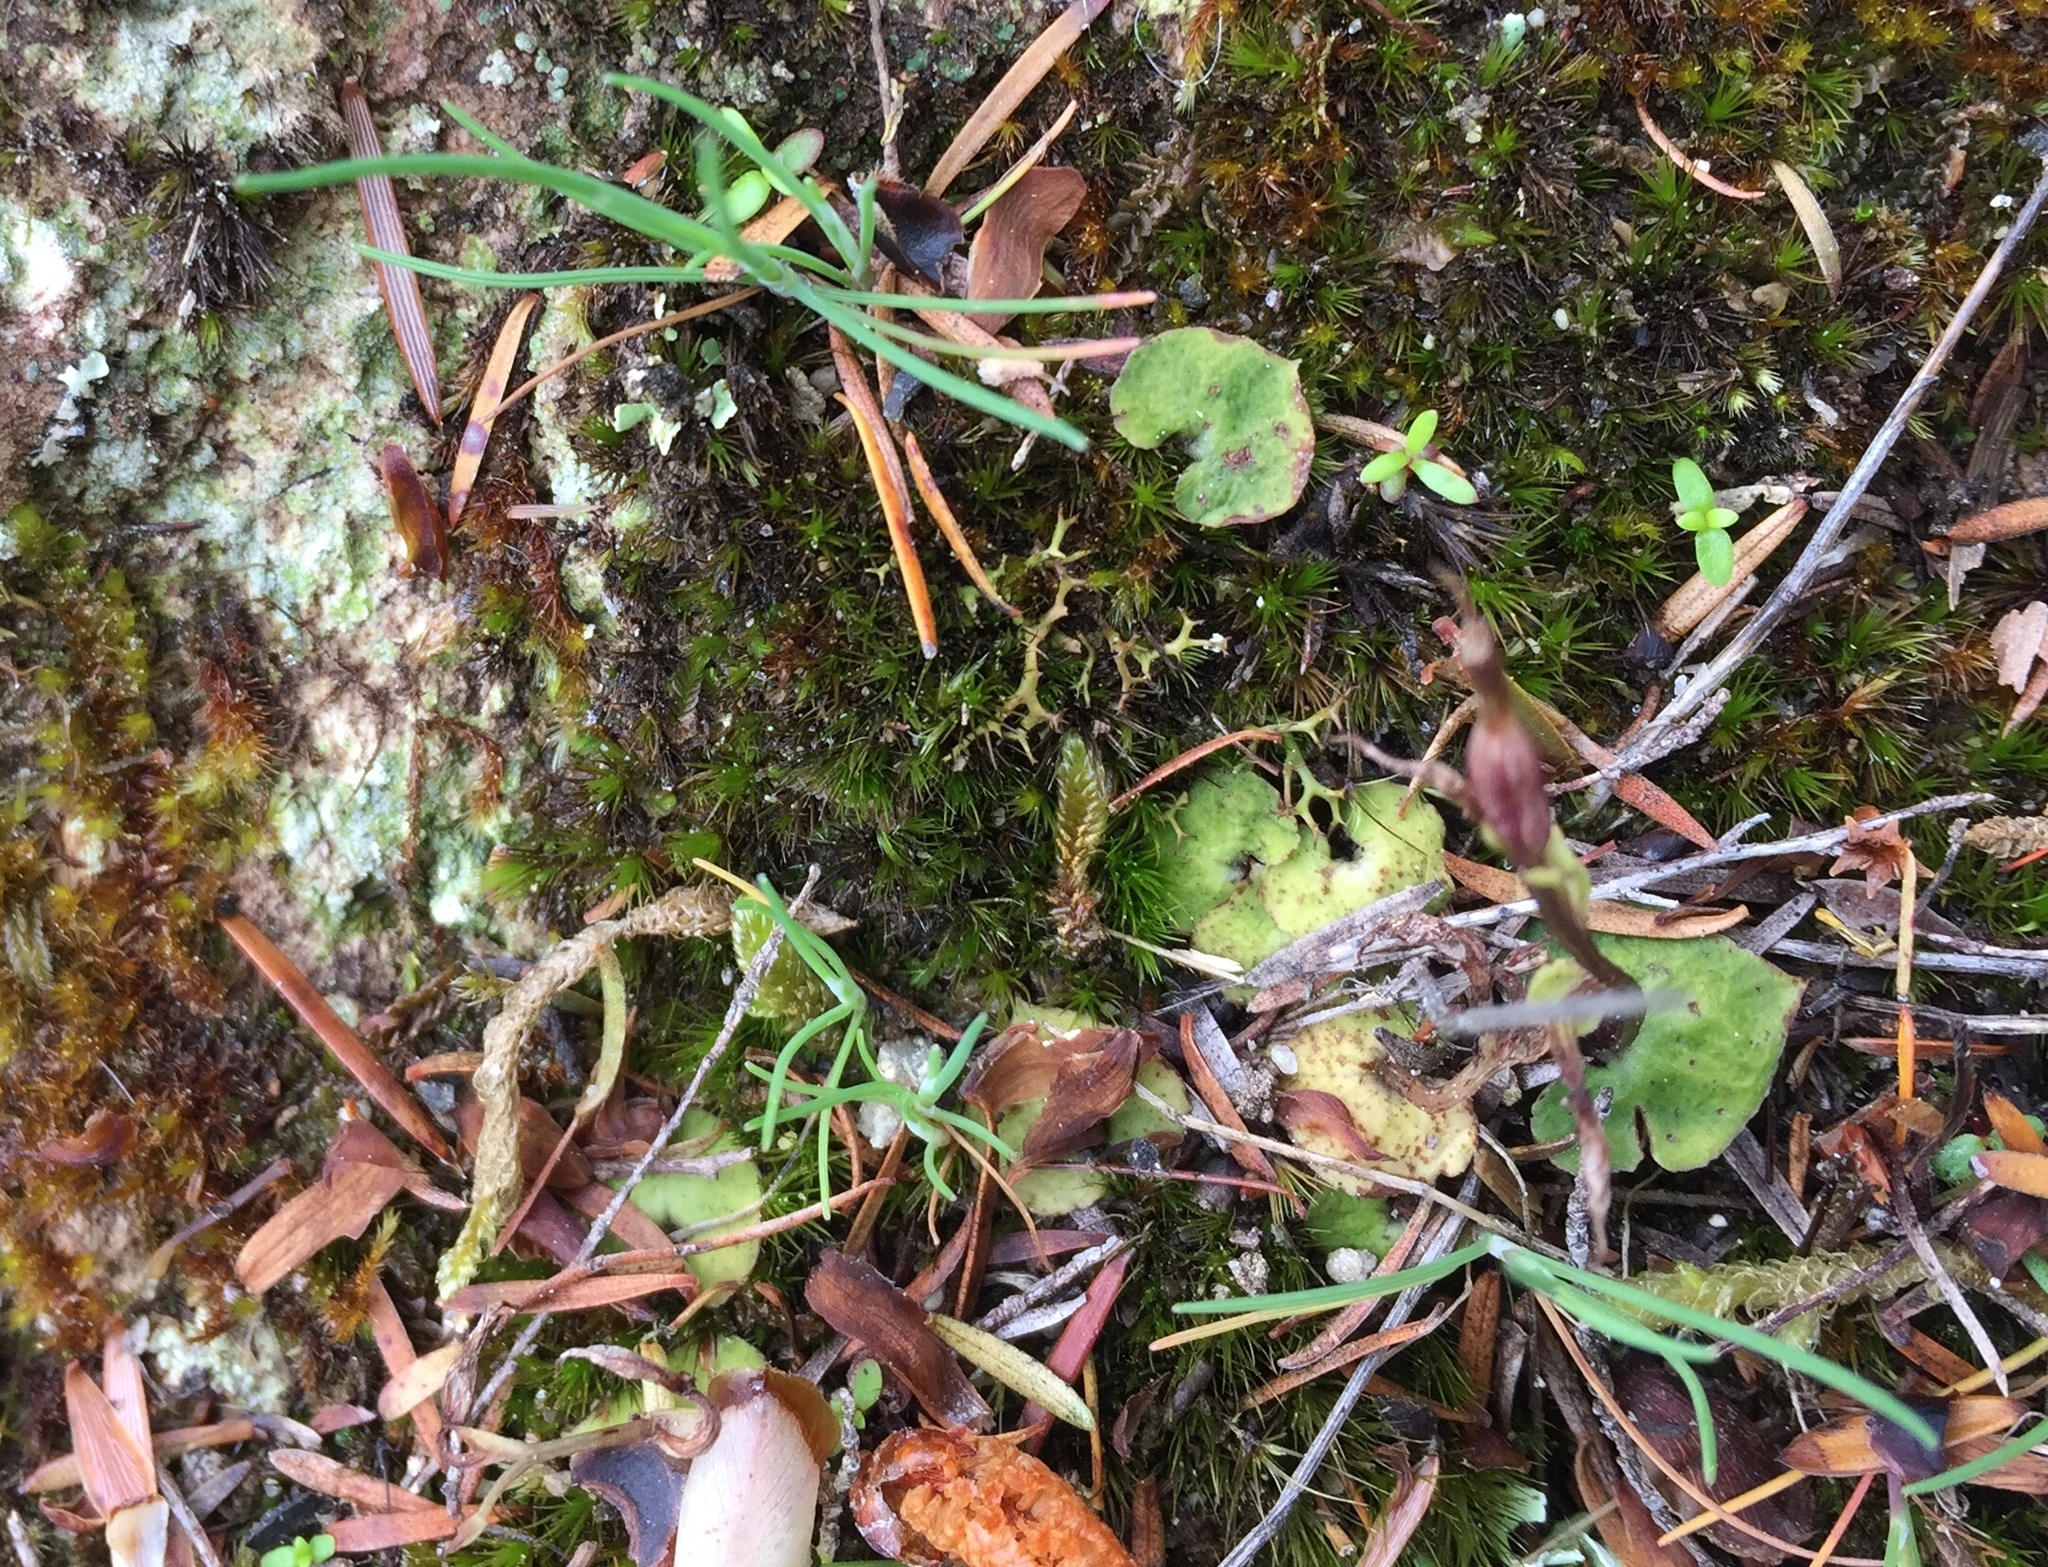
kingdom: Plantae
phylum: Tracheophyta
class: Liliopsida
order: Asparagales
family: Orchidaceae
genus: Acianthus
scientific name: Acianthus sinclairii
